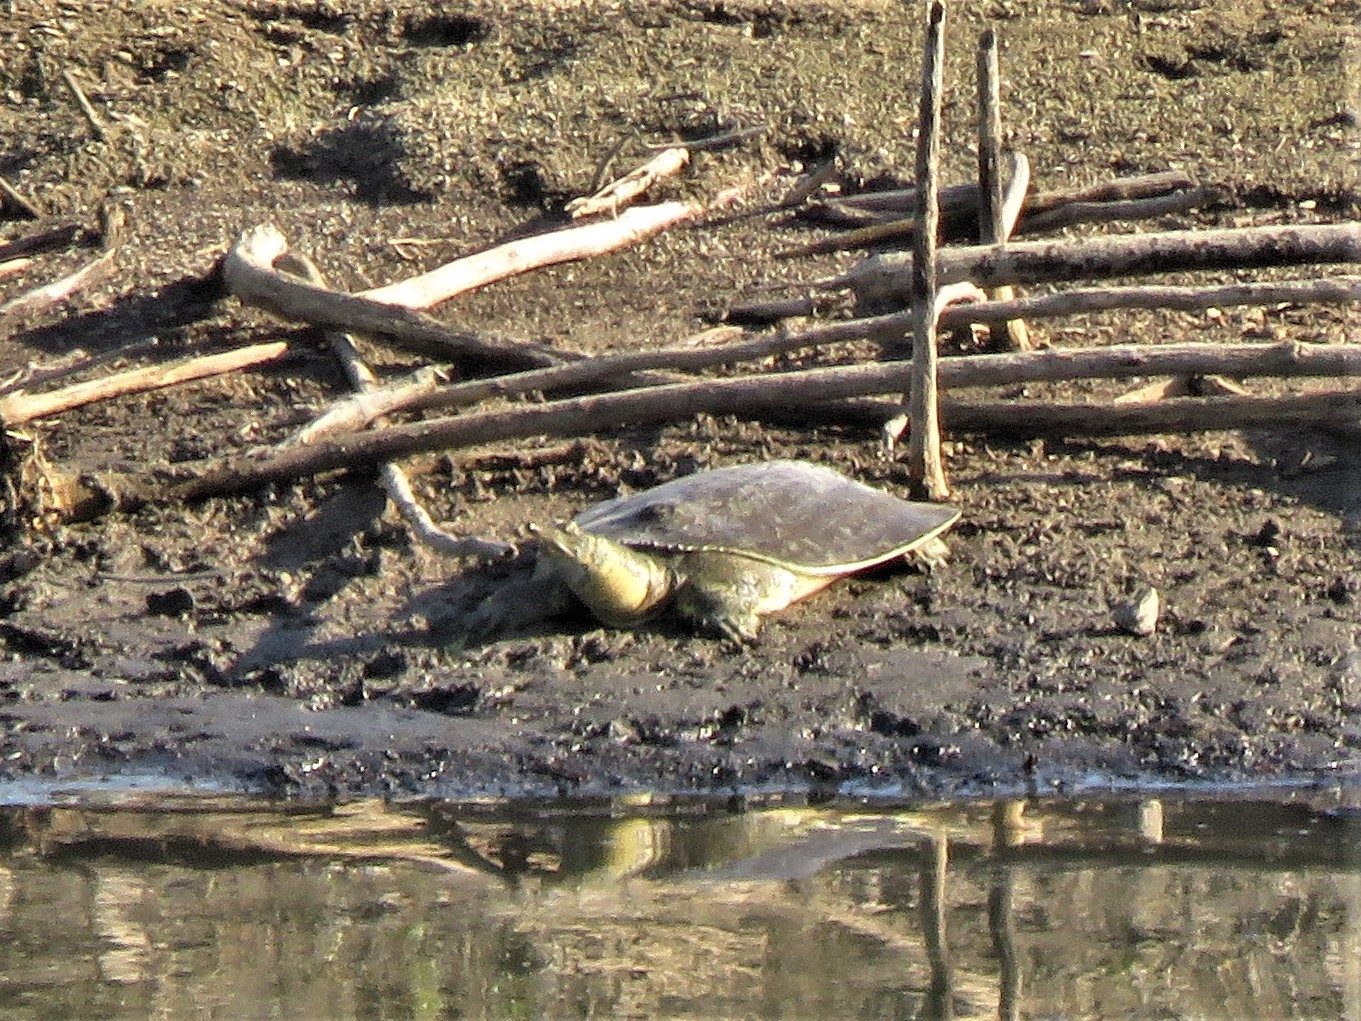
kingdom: Animalia
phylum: Chordata
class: Testudines
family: Trionychidae
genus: Apalone
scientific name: Apalone spinifera
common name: Spiny softshell turtle
